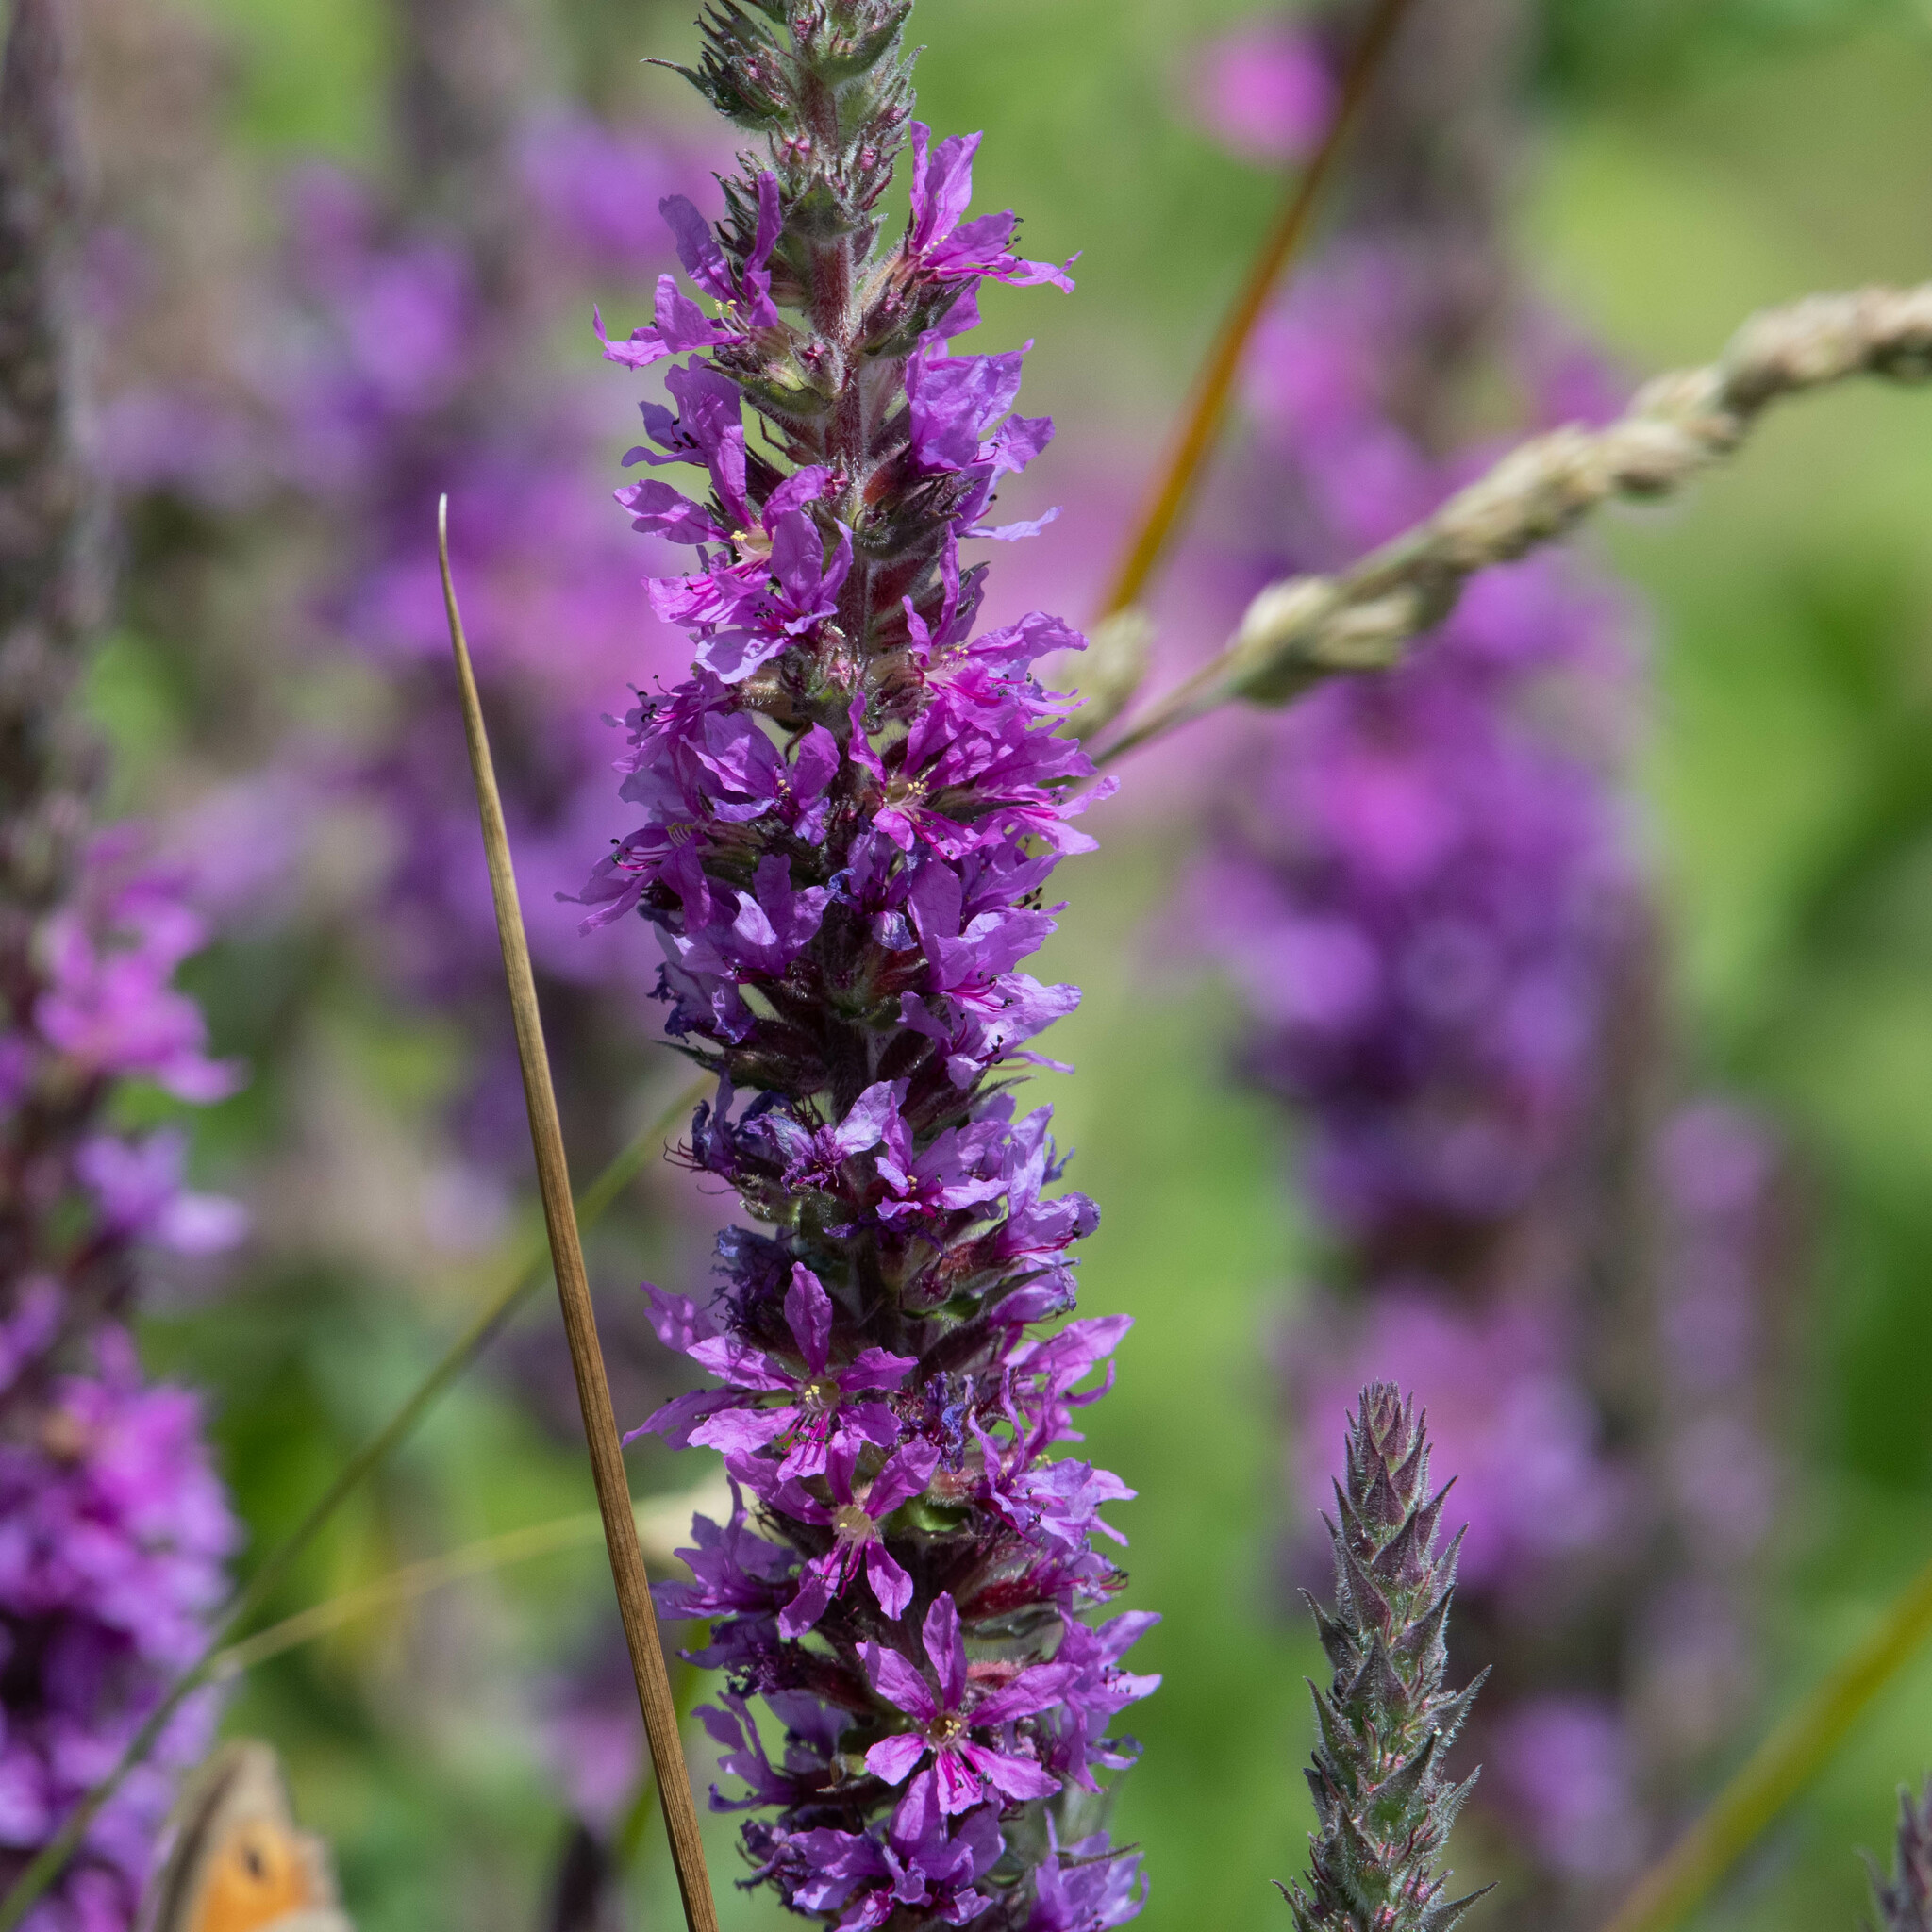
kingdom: Plantae
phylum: Tracheophyta
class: Magnoliopsida
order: Myrtales
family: Lythraceae
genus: Lythrum
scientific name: Lythrum salicaria
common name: Purple loosestrife
